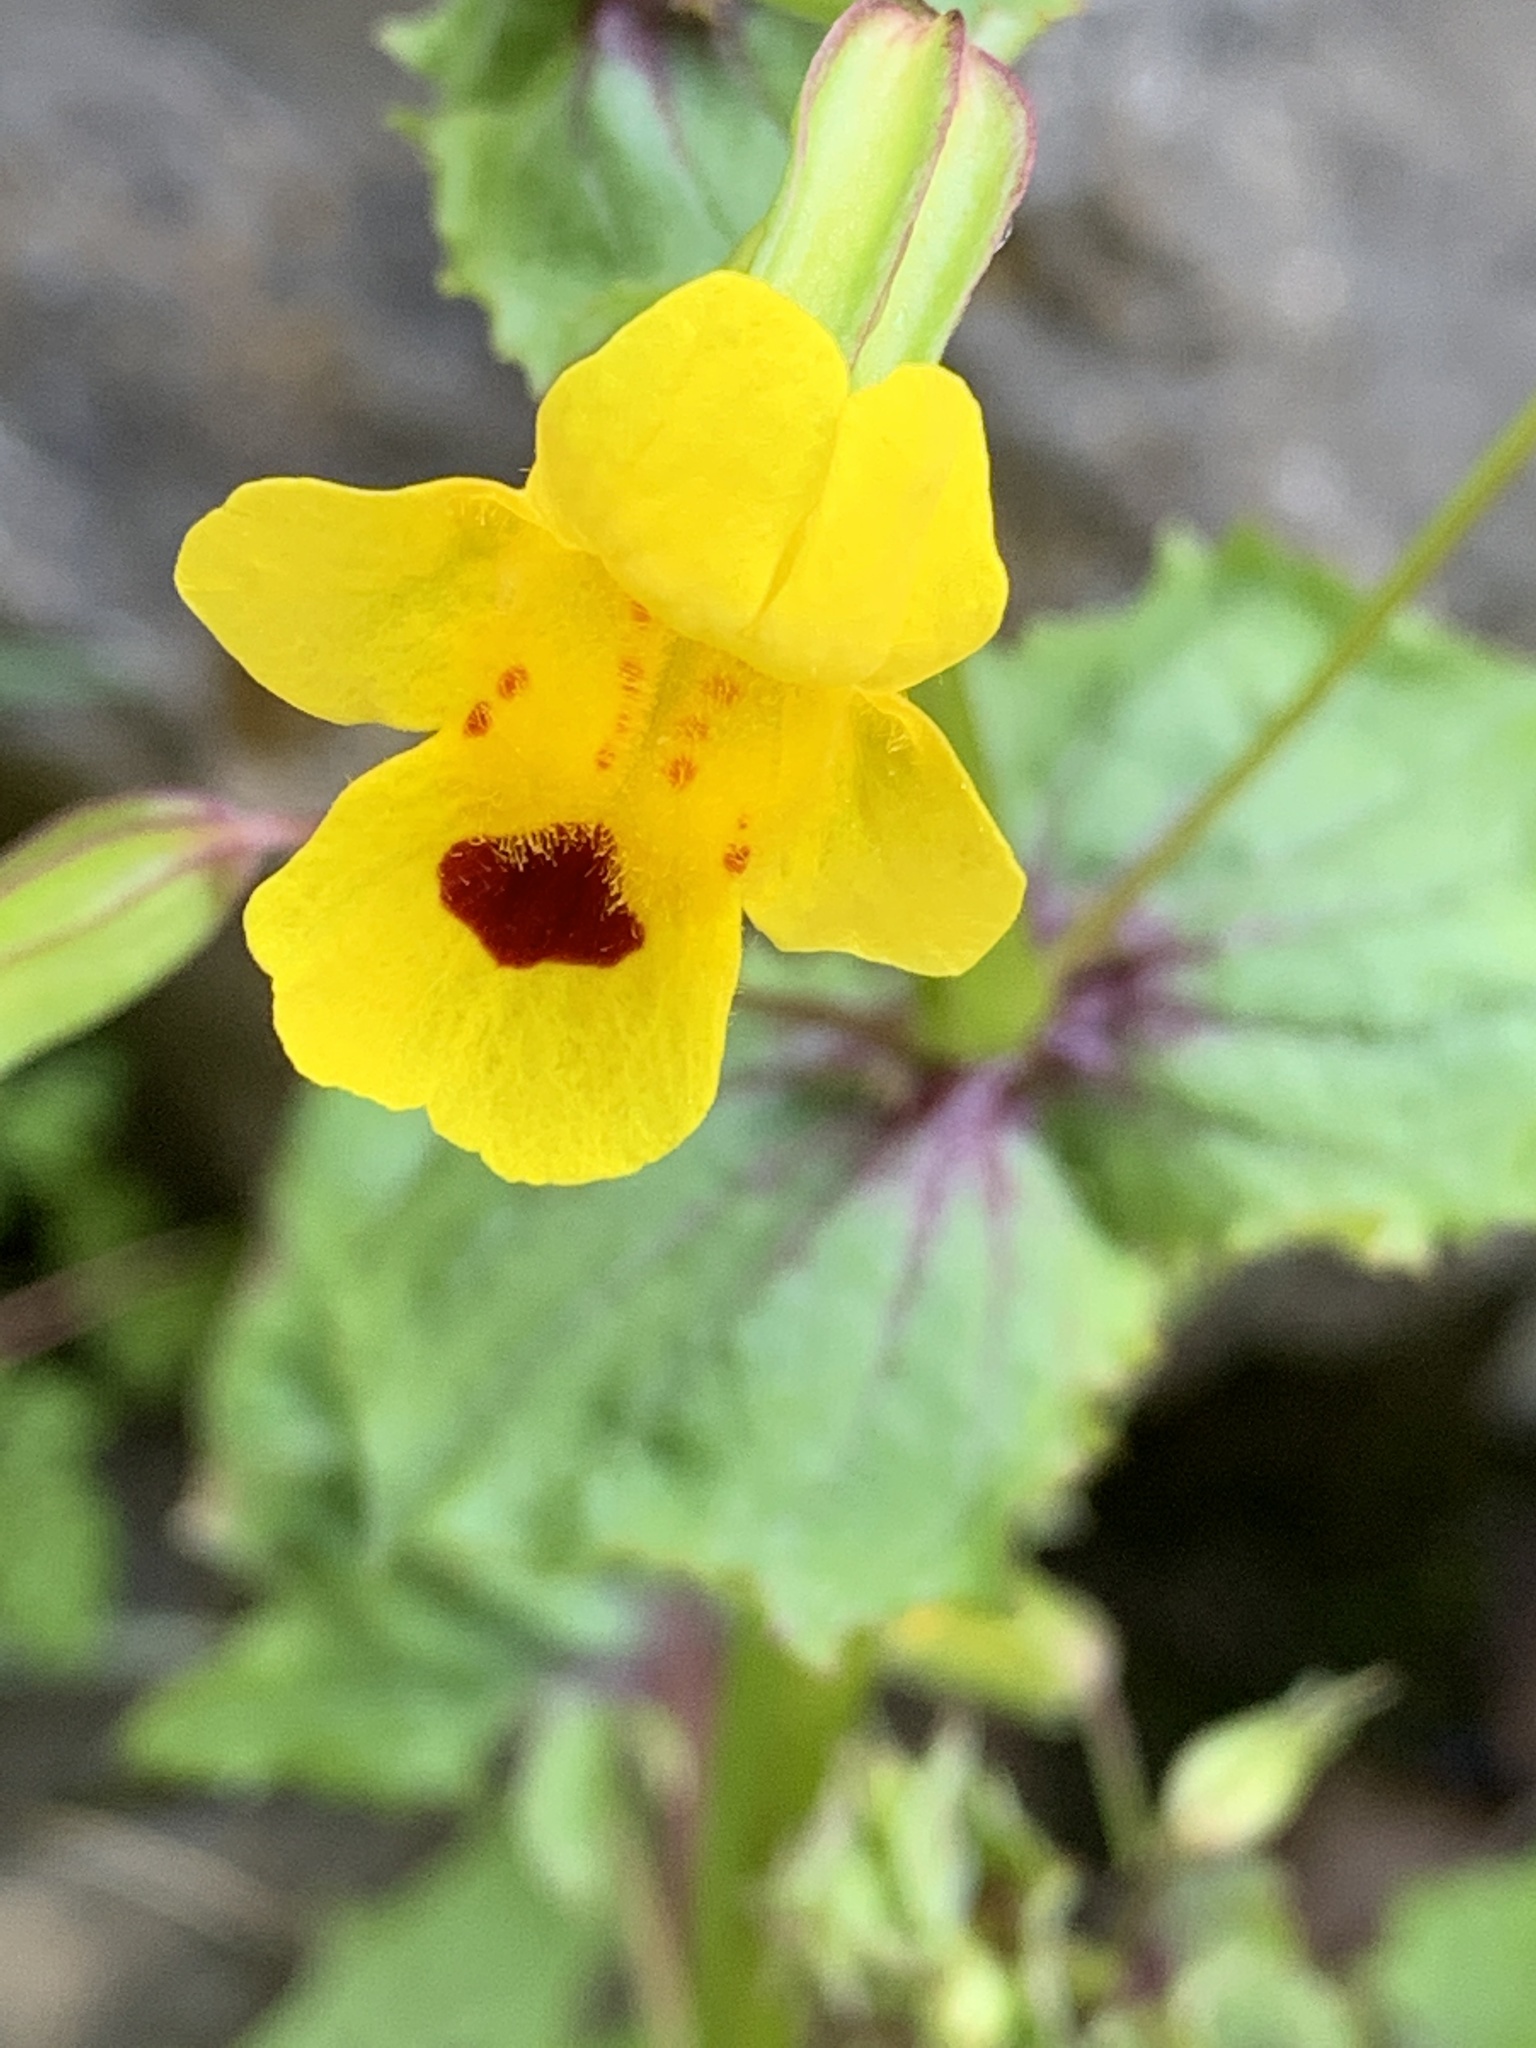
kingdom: Plantae
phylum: Tracheophyta
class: Magnoliopsida
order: Lamiales
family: Phrymaceae
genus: Erythranthe
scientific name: Erythranthe nasuta
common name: Sooke monkeyflower
